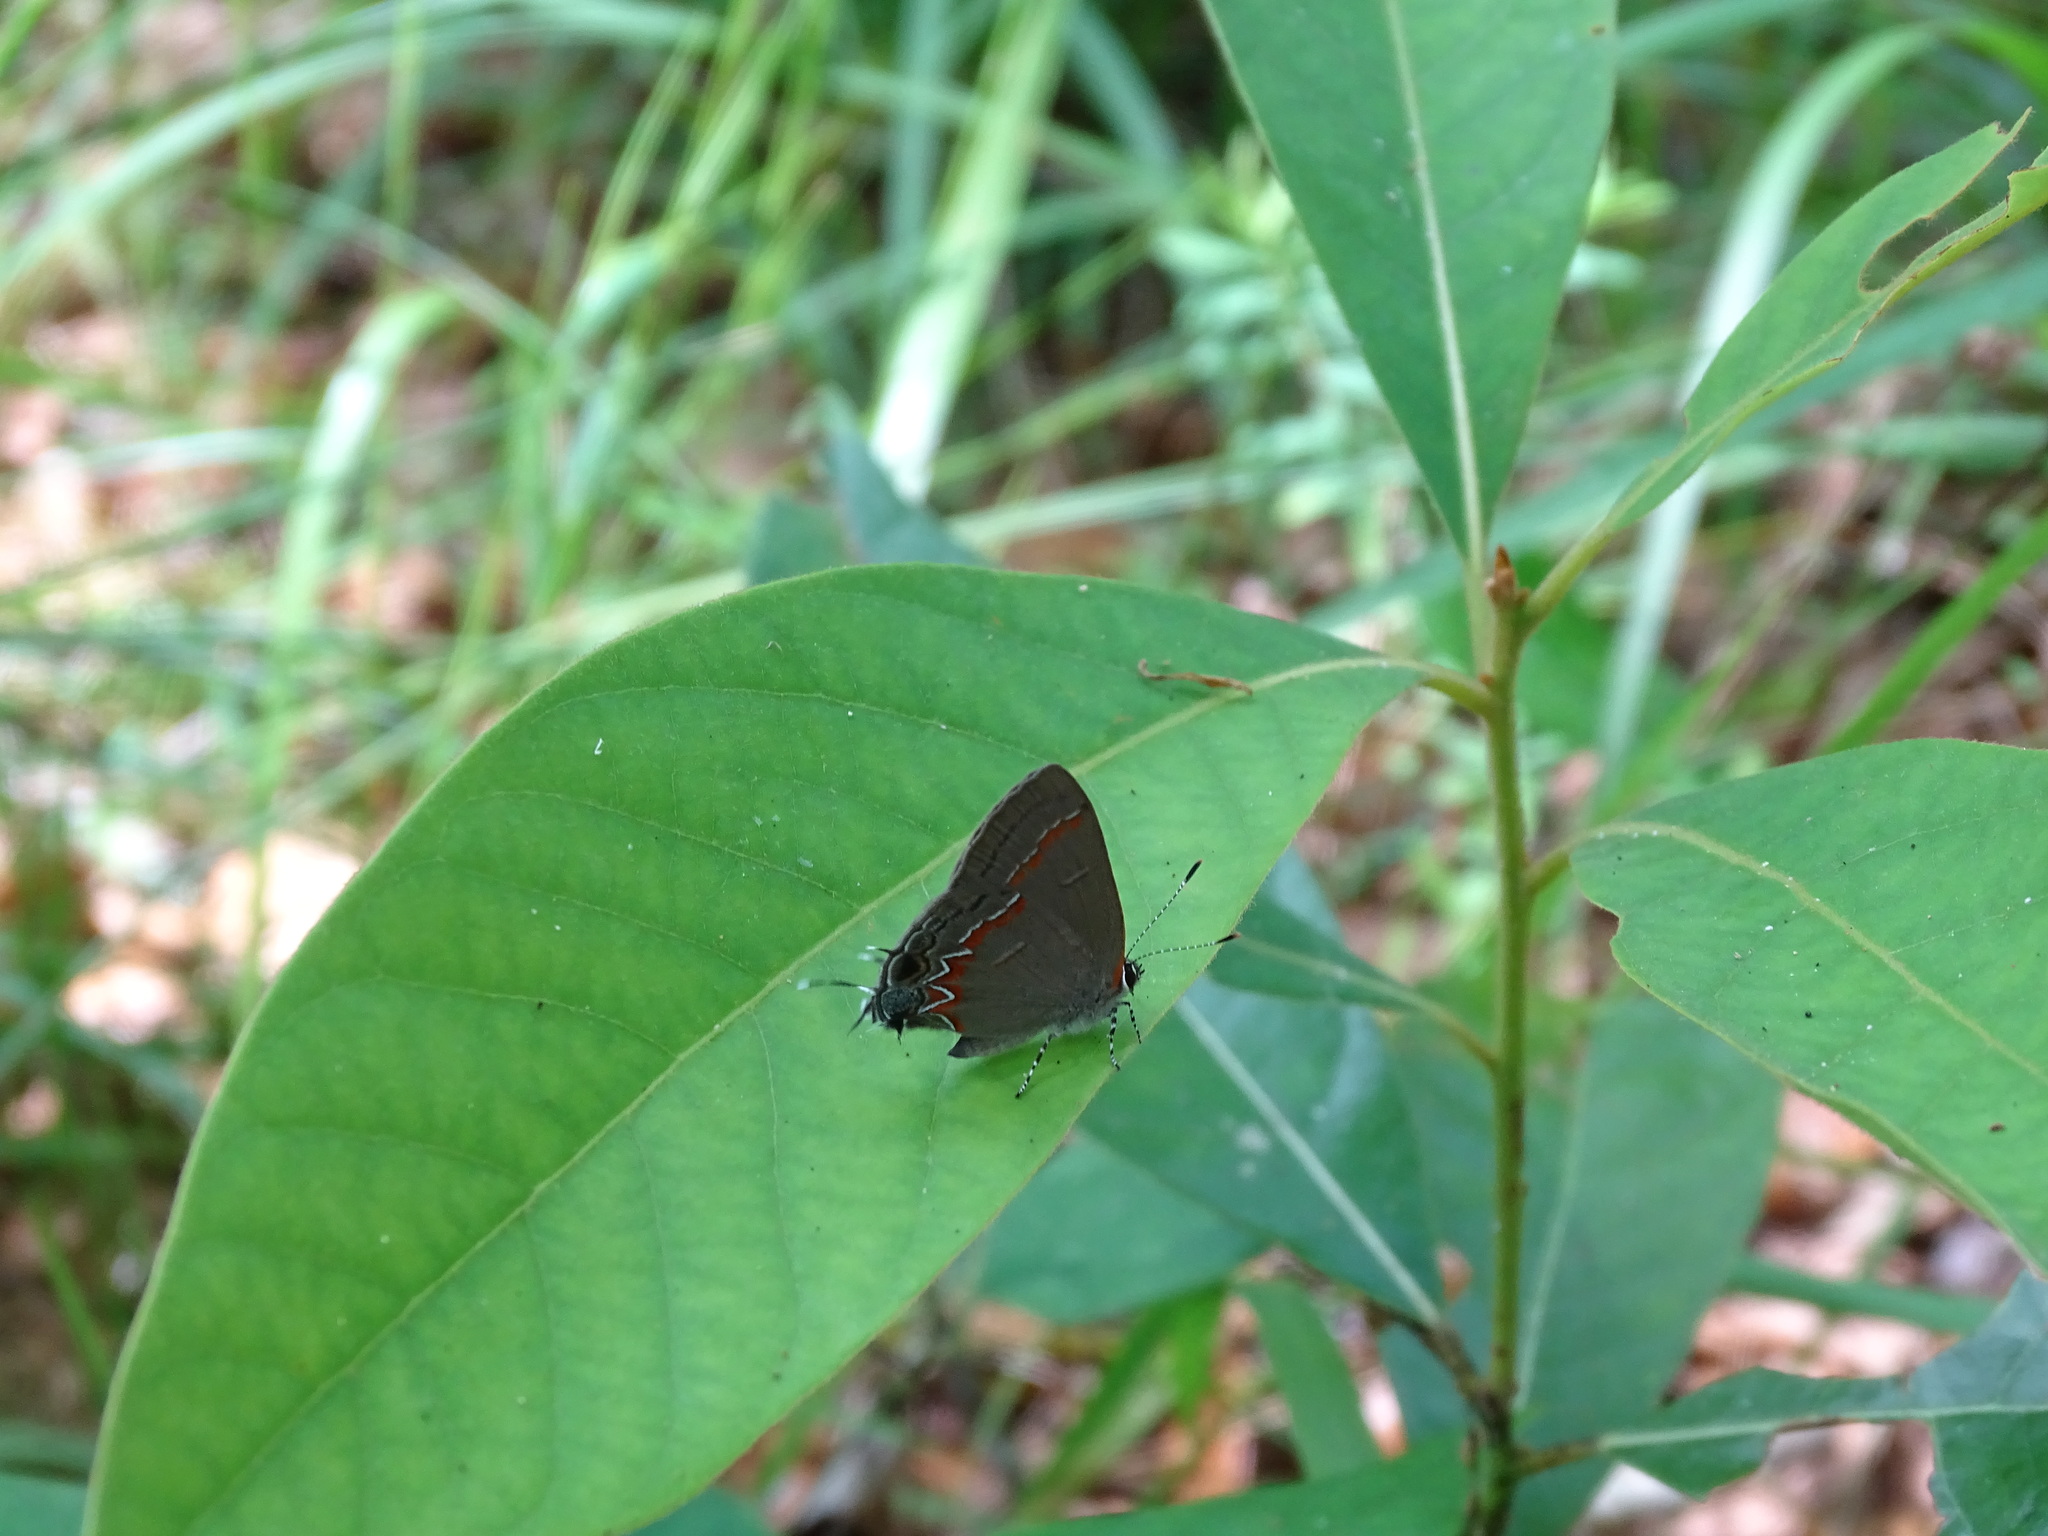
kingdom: Animalia
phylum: Arthropoda
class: Insecta
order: Lepidoptera
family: Lycaenidae
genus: Calycopis
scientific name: Calycopis cecrops
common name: Red-banded hairstreak
